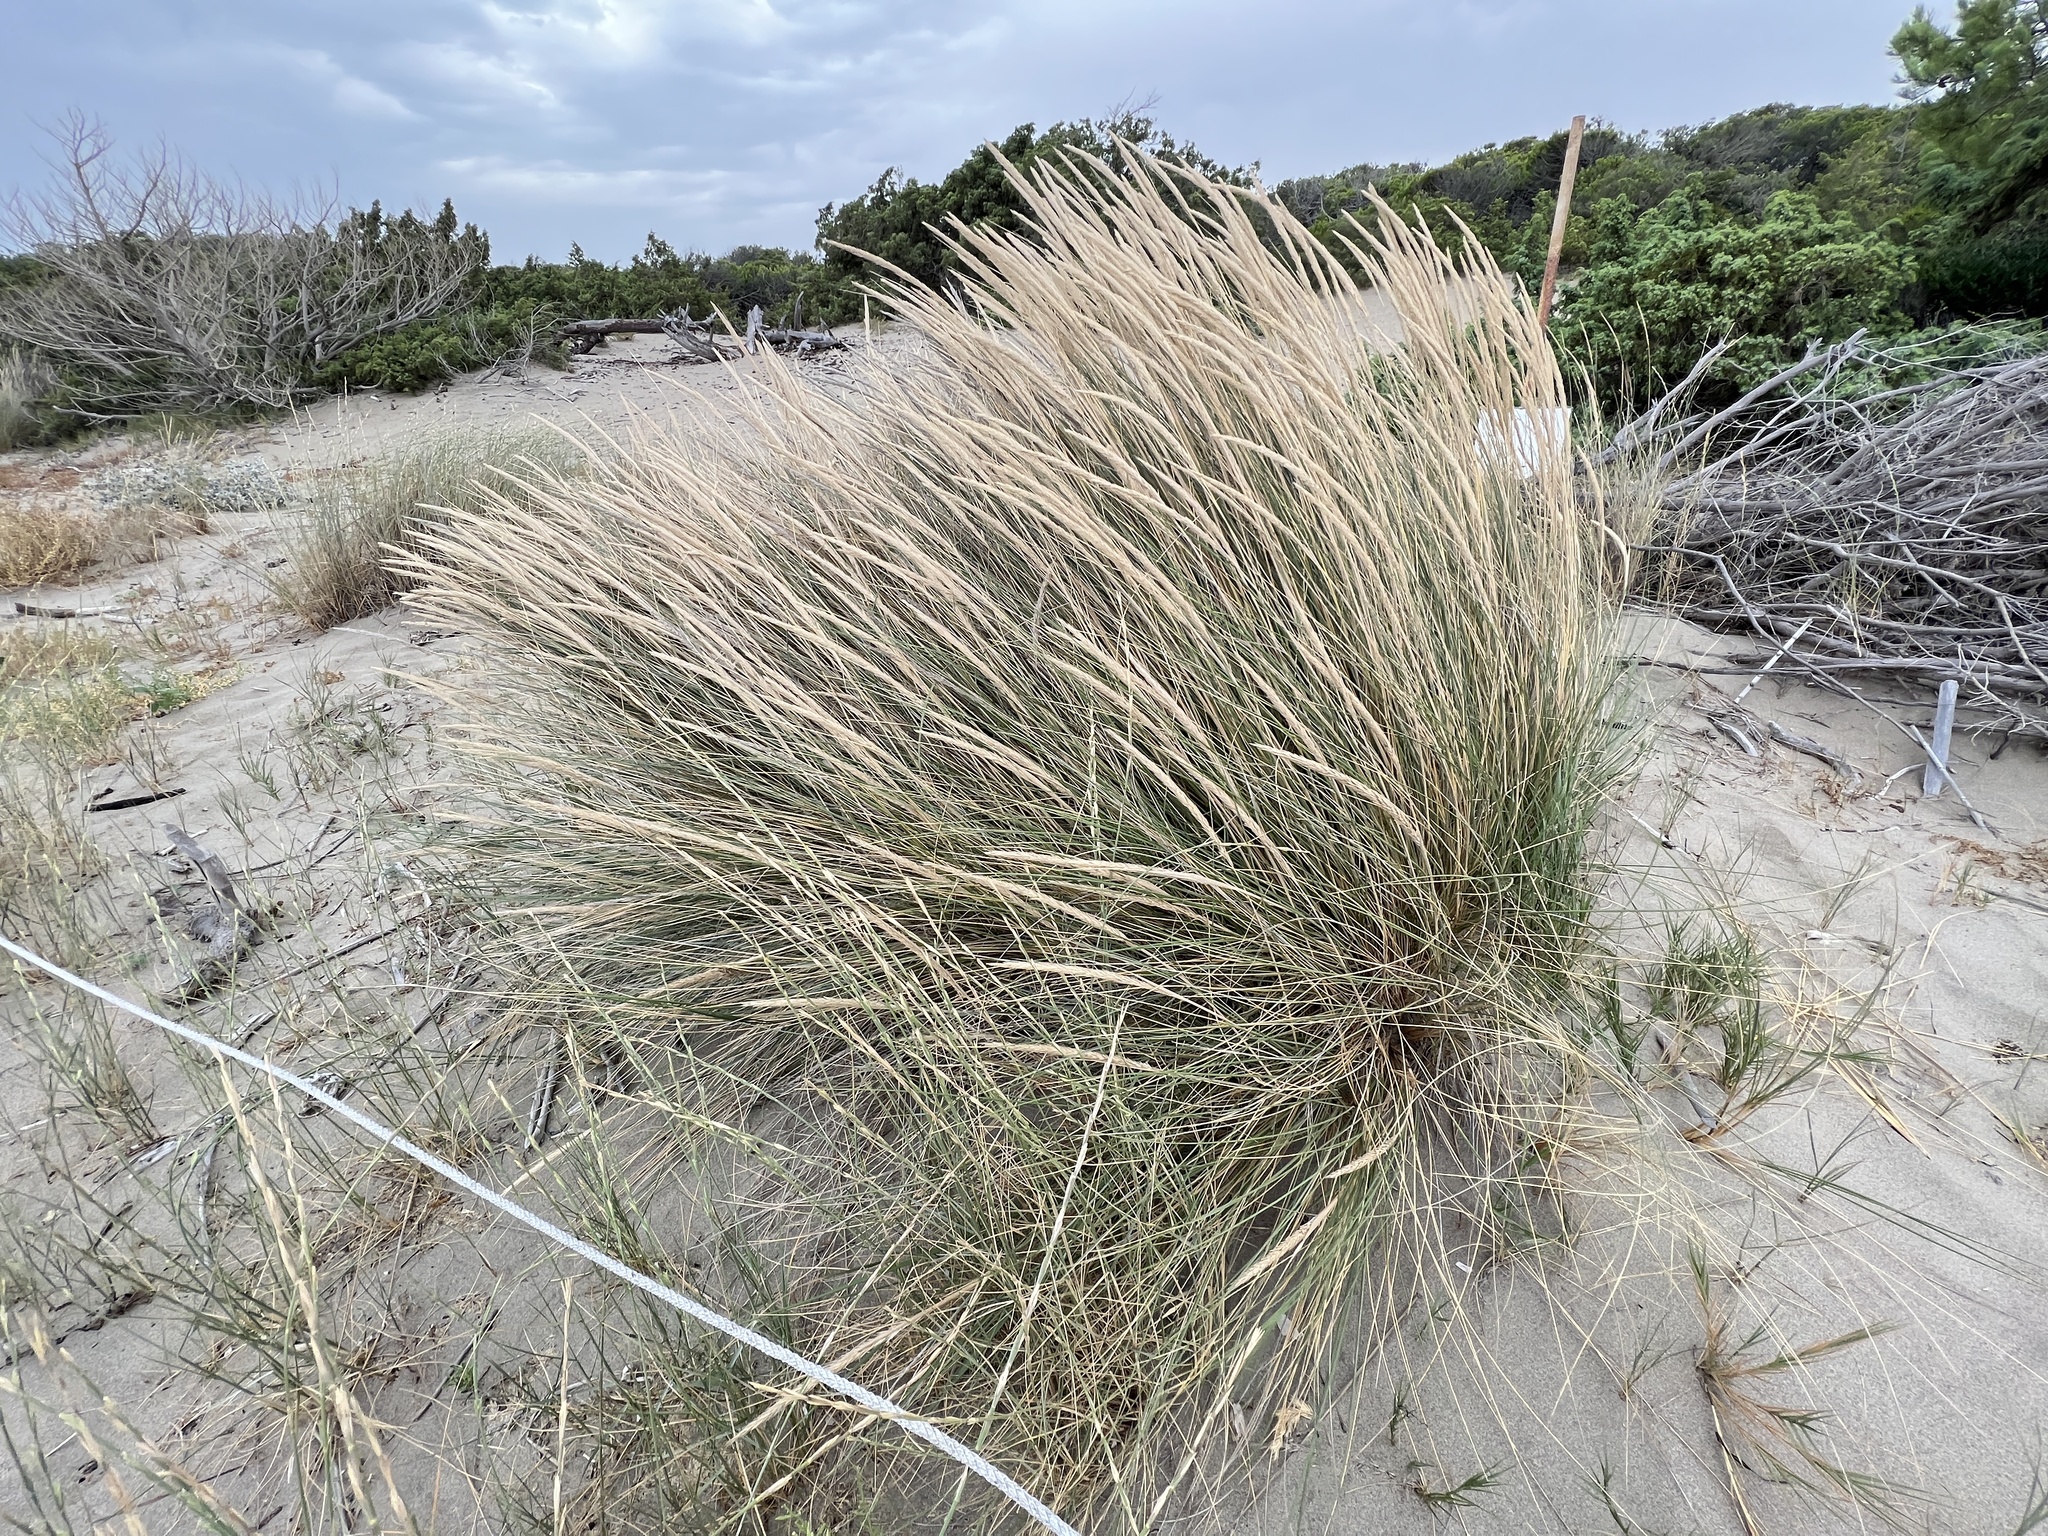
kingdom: Plantae
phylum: Tracheophyta
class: Liliopsida
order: Poales
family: Poaceae
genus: Calamagrostis
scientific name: Calamagrostis arenaria
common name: European beachgrass
